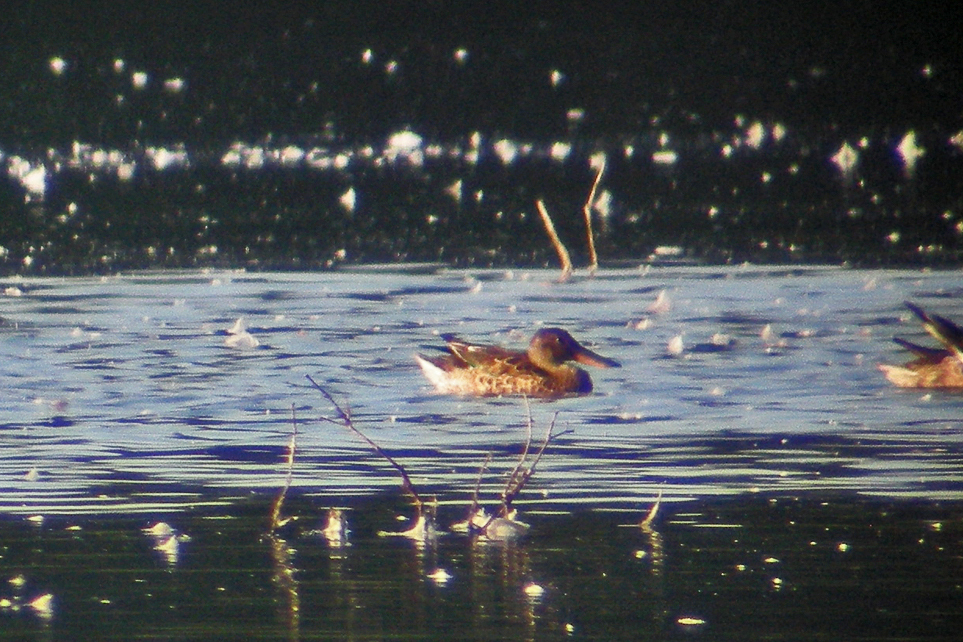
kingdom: Animalia
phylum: Chordata
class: Aves
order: Anseriformes
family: Anatidae
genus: Spatula
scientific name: Spatula clypeata
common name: Northern shoveler
